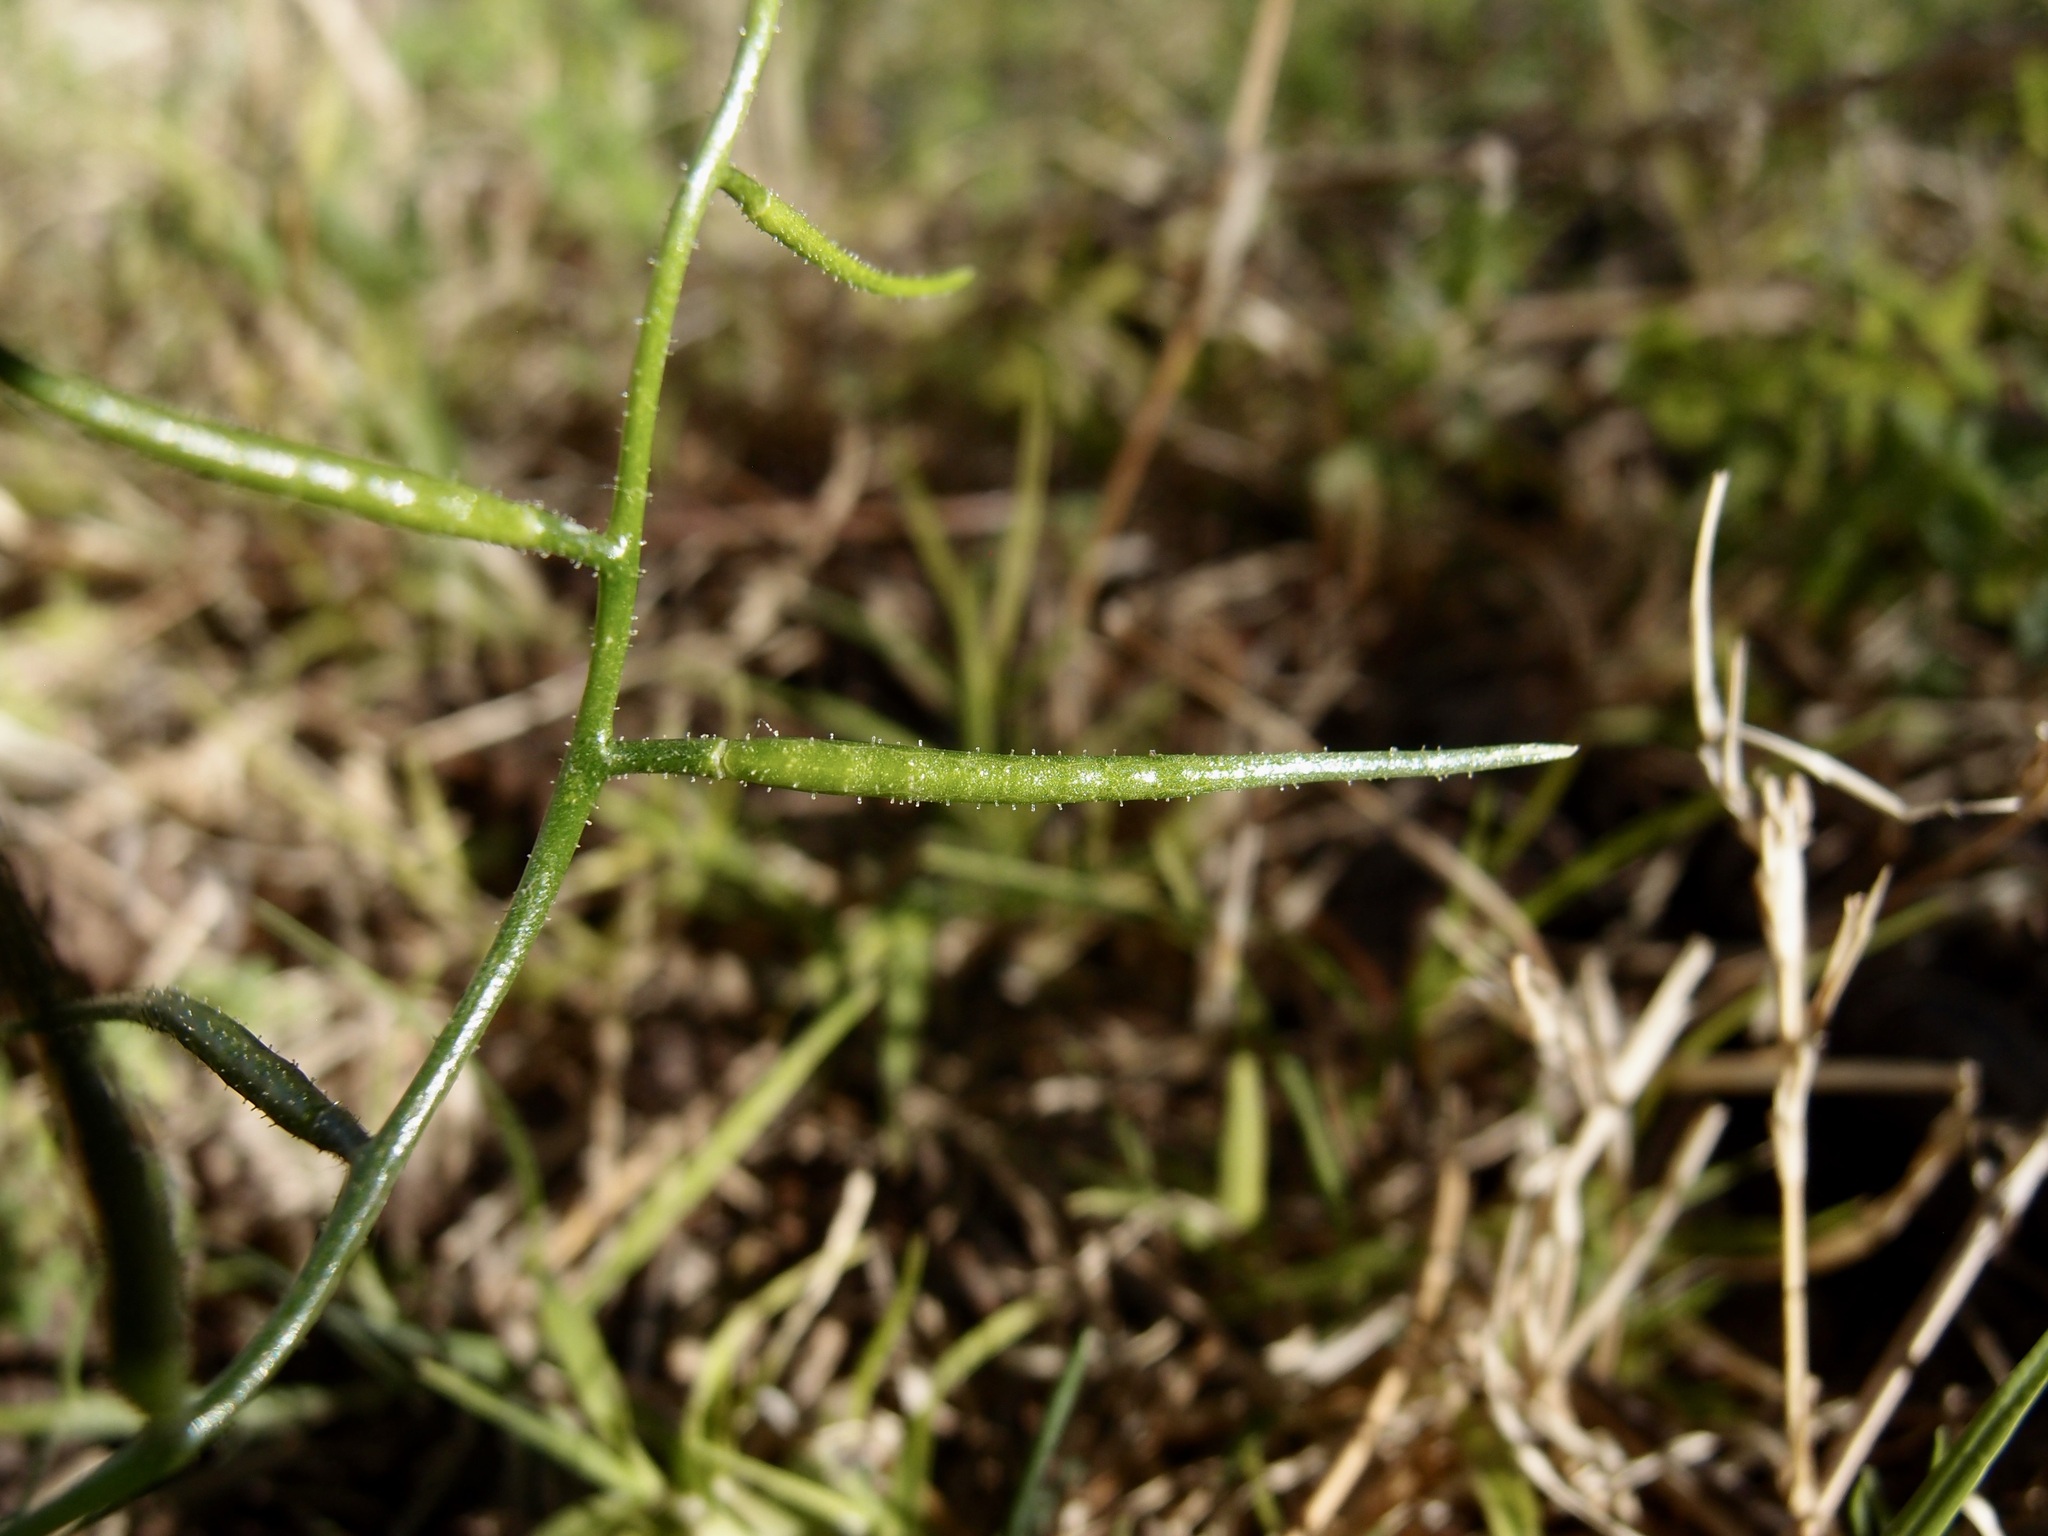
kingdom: Plantae
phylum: Tracheophyta
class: Magnoliopsida
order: Brassicales
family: Brassicaceae
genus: Chorispora
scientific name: Chorispora tenella
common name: Crossflower
